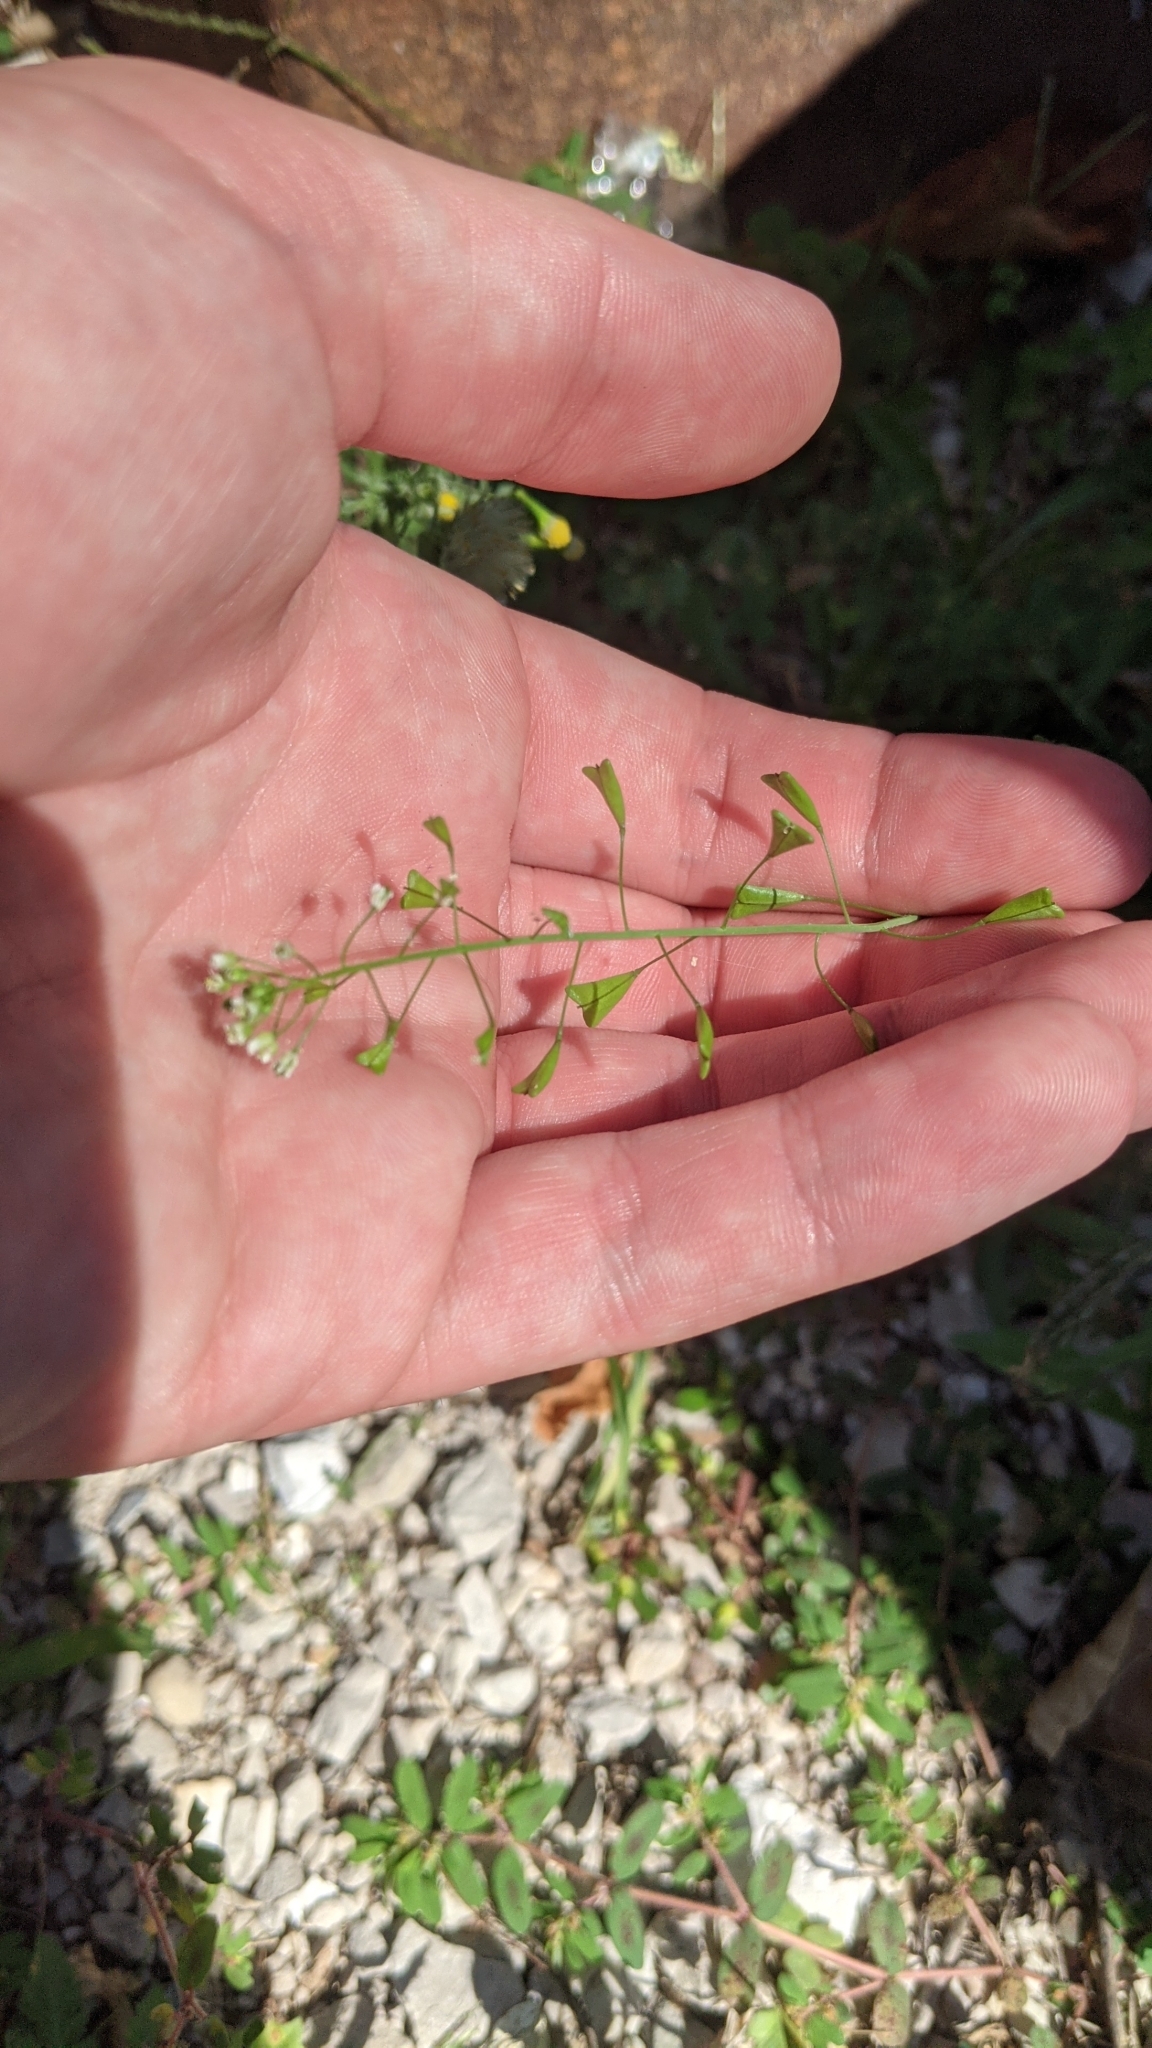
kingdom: Plantae
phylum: Tracheophyta
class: Magnoliopsida
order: Brassicales
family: Brassicaceae
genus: Capsella
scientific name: Capsella bursa-pastoris
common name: Shepherd's purse
